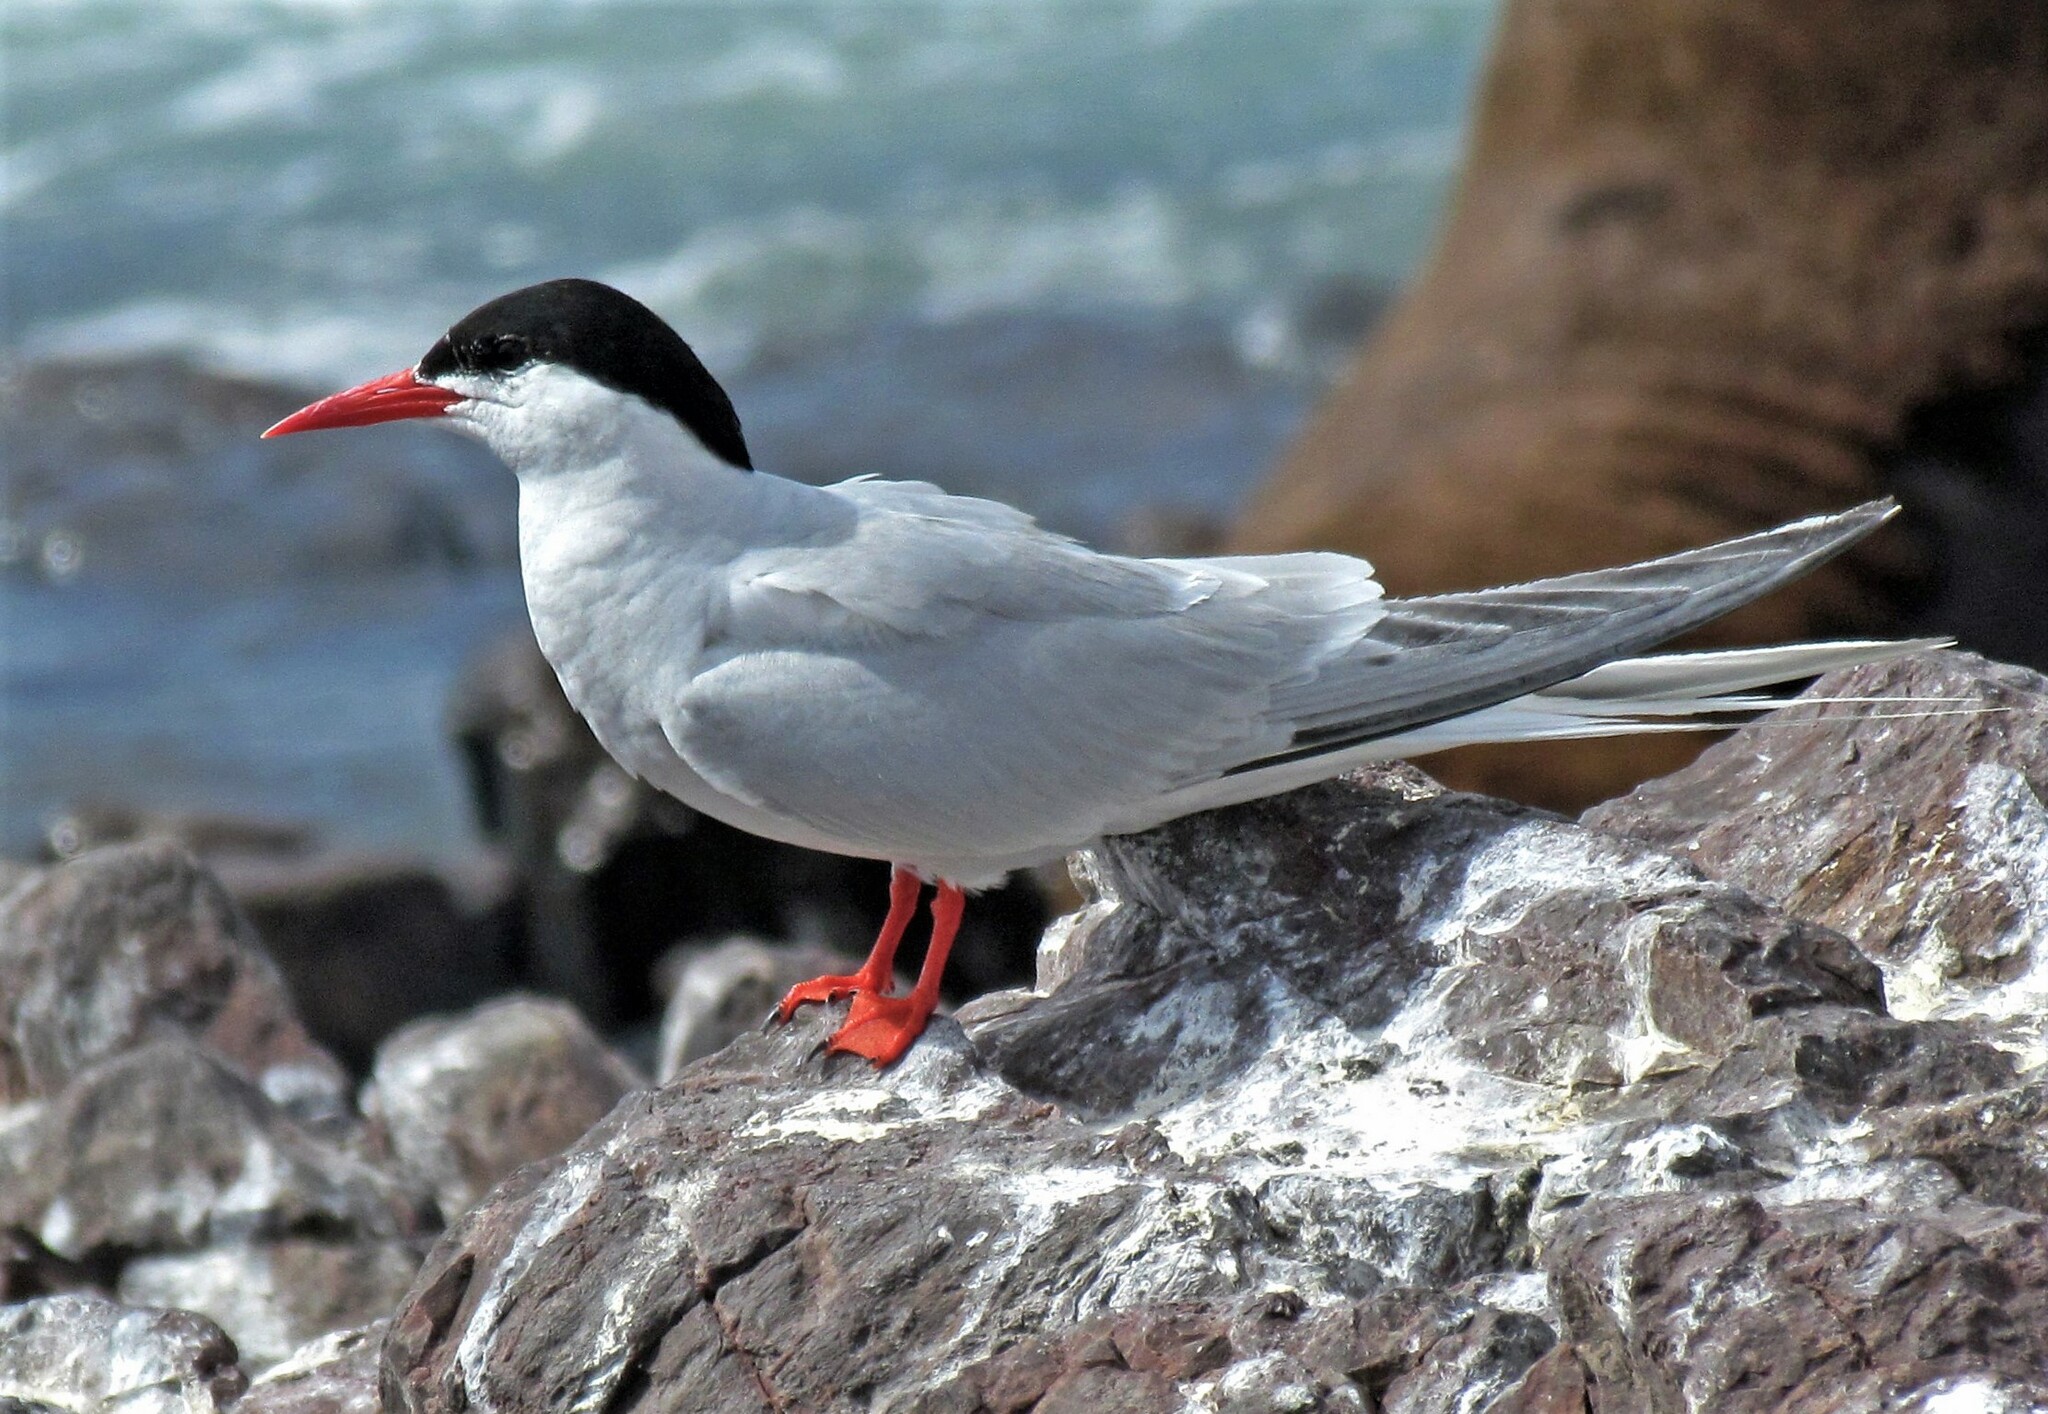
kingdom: Animalia
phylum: Chordata
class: Aves
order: Charadriiformes
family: Laridae
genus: Sterna
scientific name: Sterna hirundinacea
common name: South american tern
